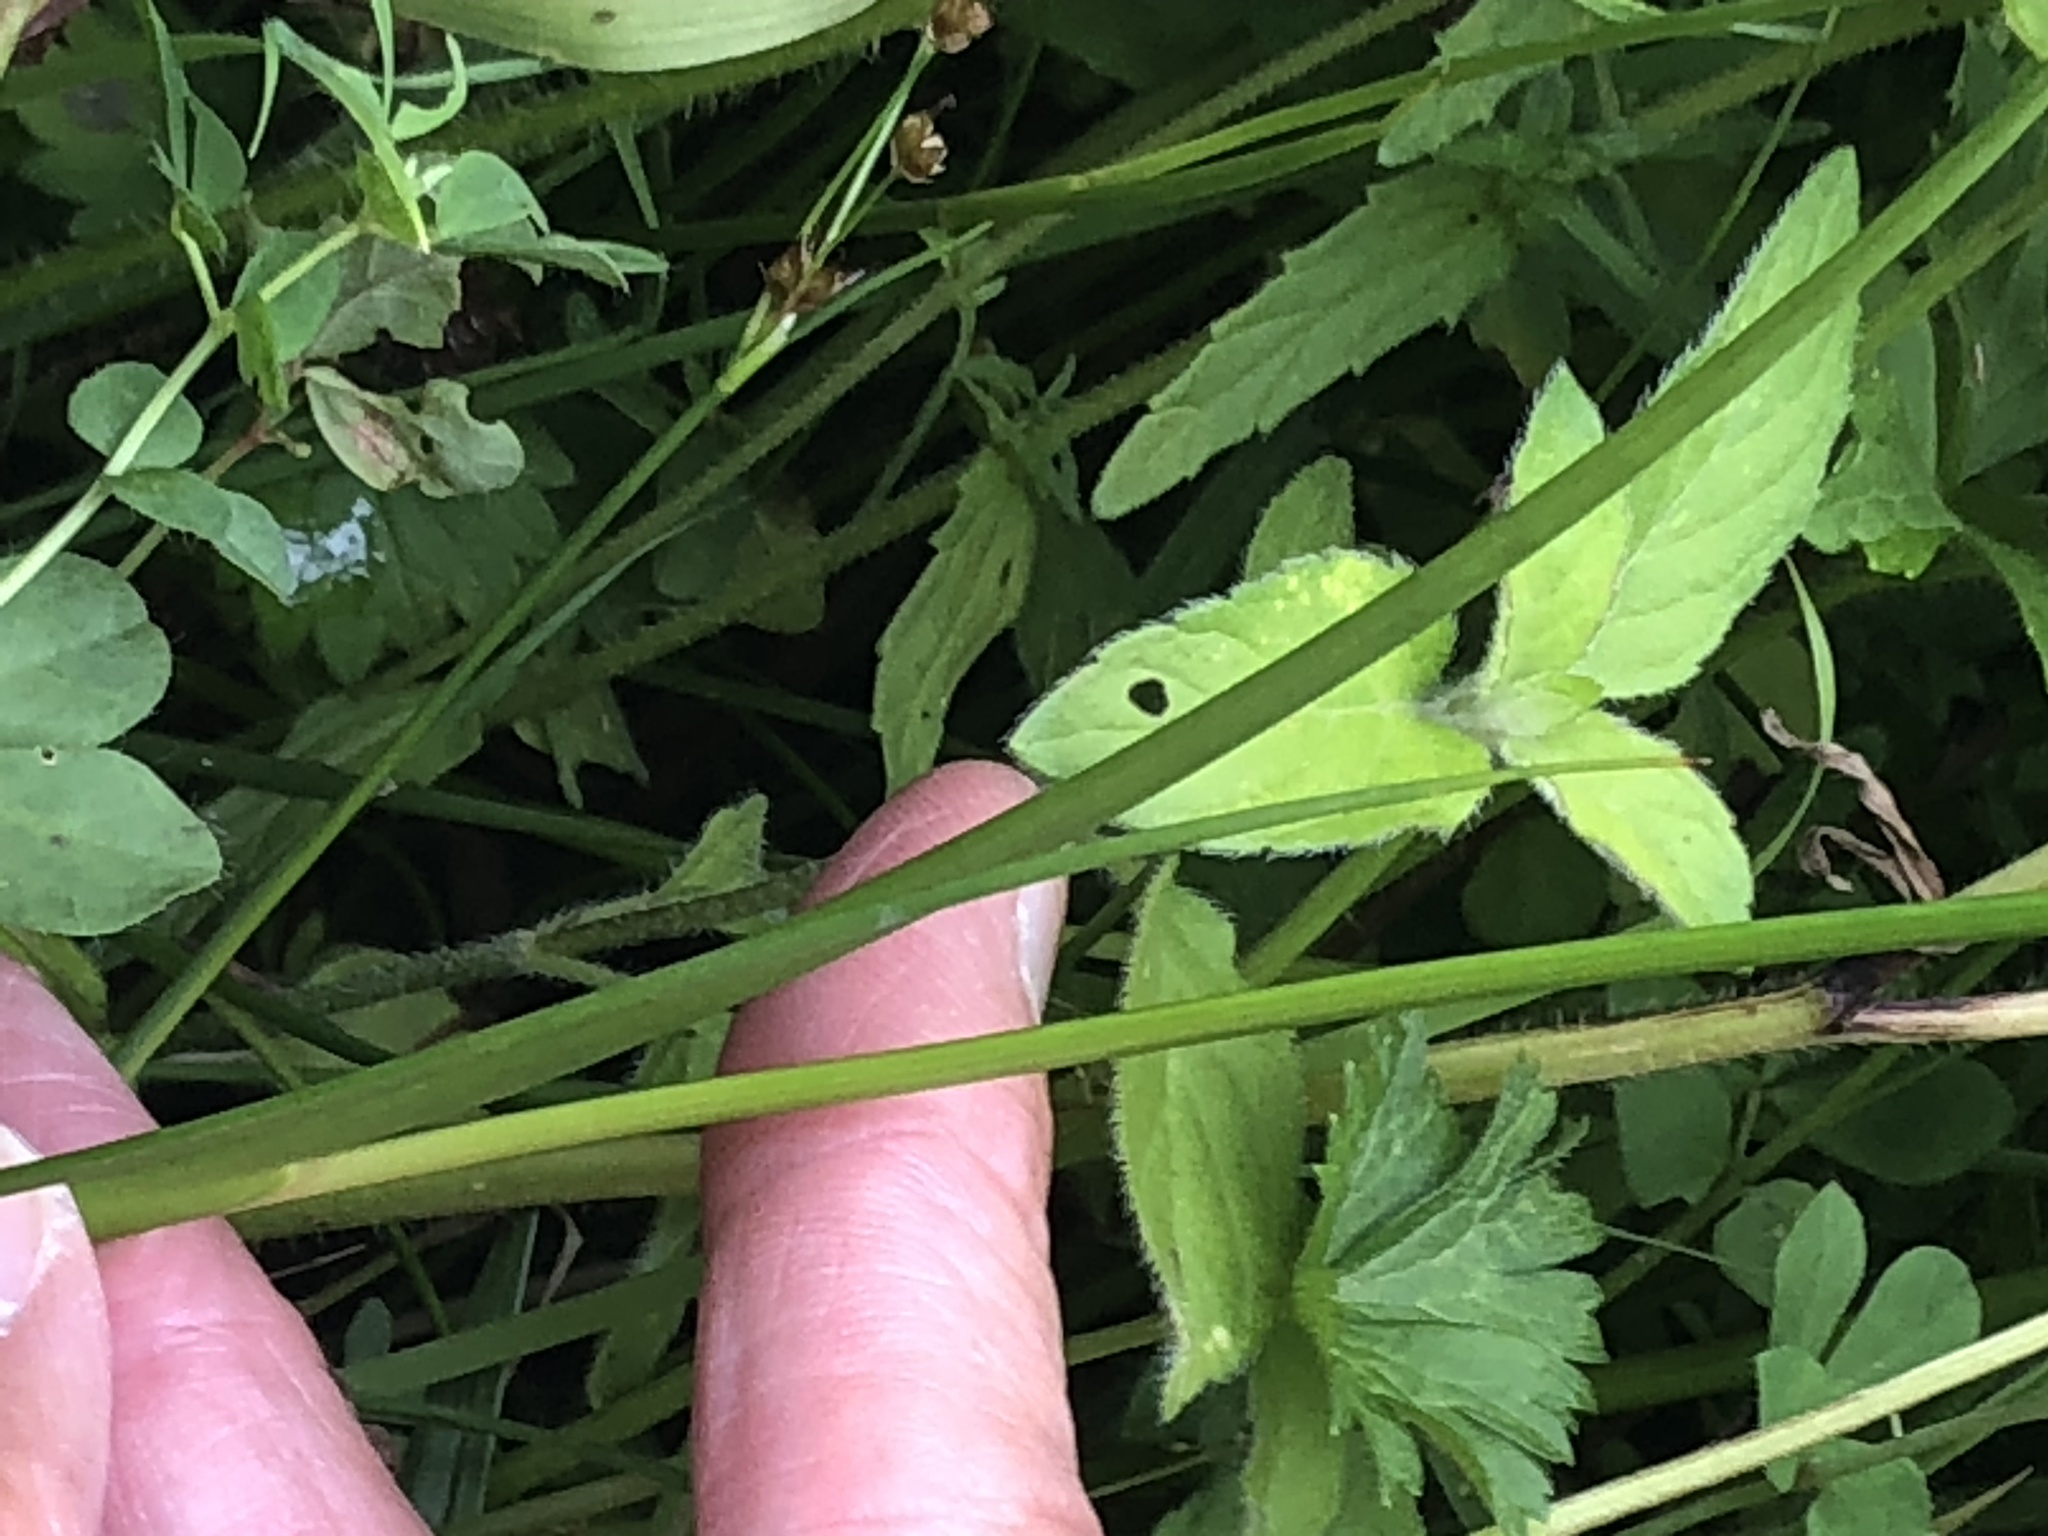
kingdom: Plantae
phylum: Tracheophyta
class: Liliopsida
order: Poales
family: Juncaceae
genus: Juncus
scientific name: Juncus articulatus
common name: Jointed rush
